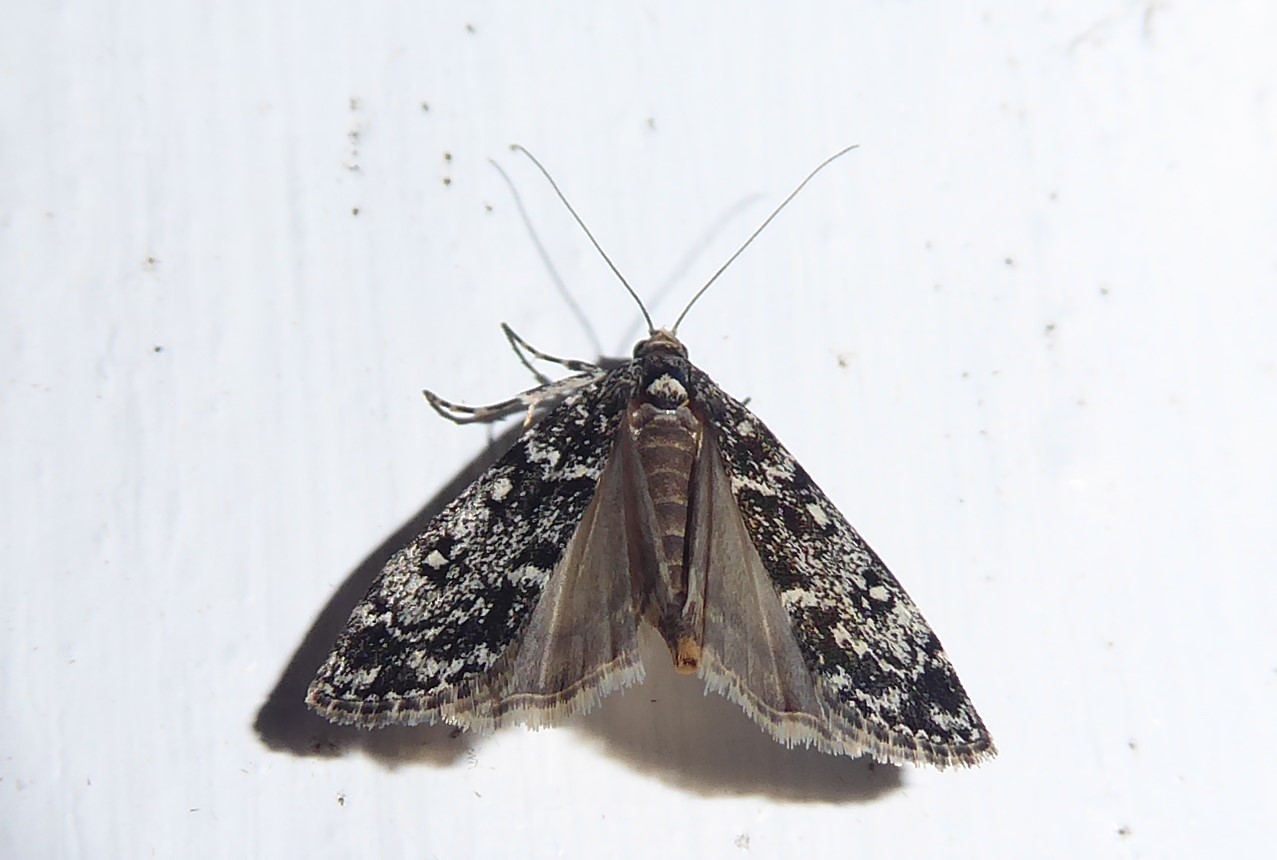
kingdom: Animalia
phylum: Arthropoda
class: Insecta
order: Lepidoptera
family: Crambidae
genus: Eudonia
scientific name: Eudonia philerga
